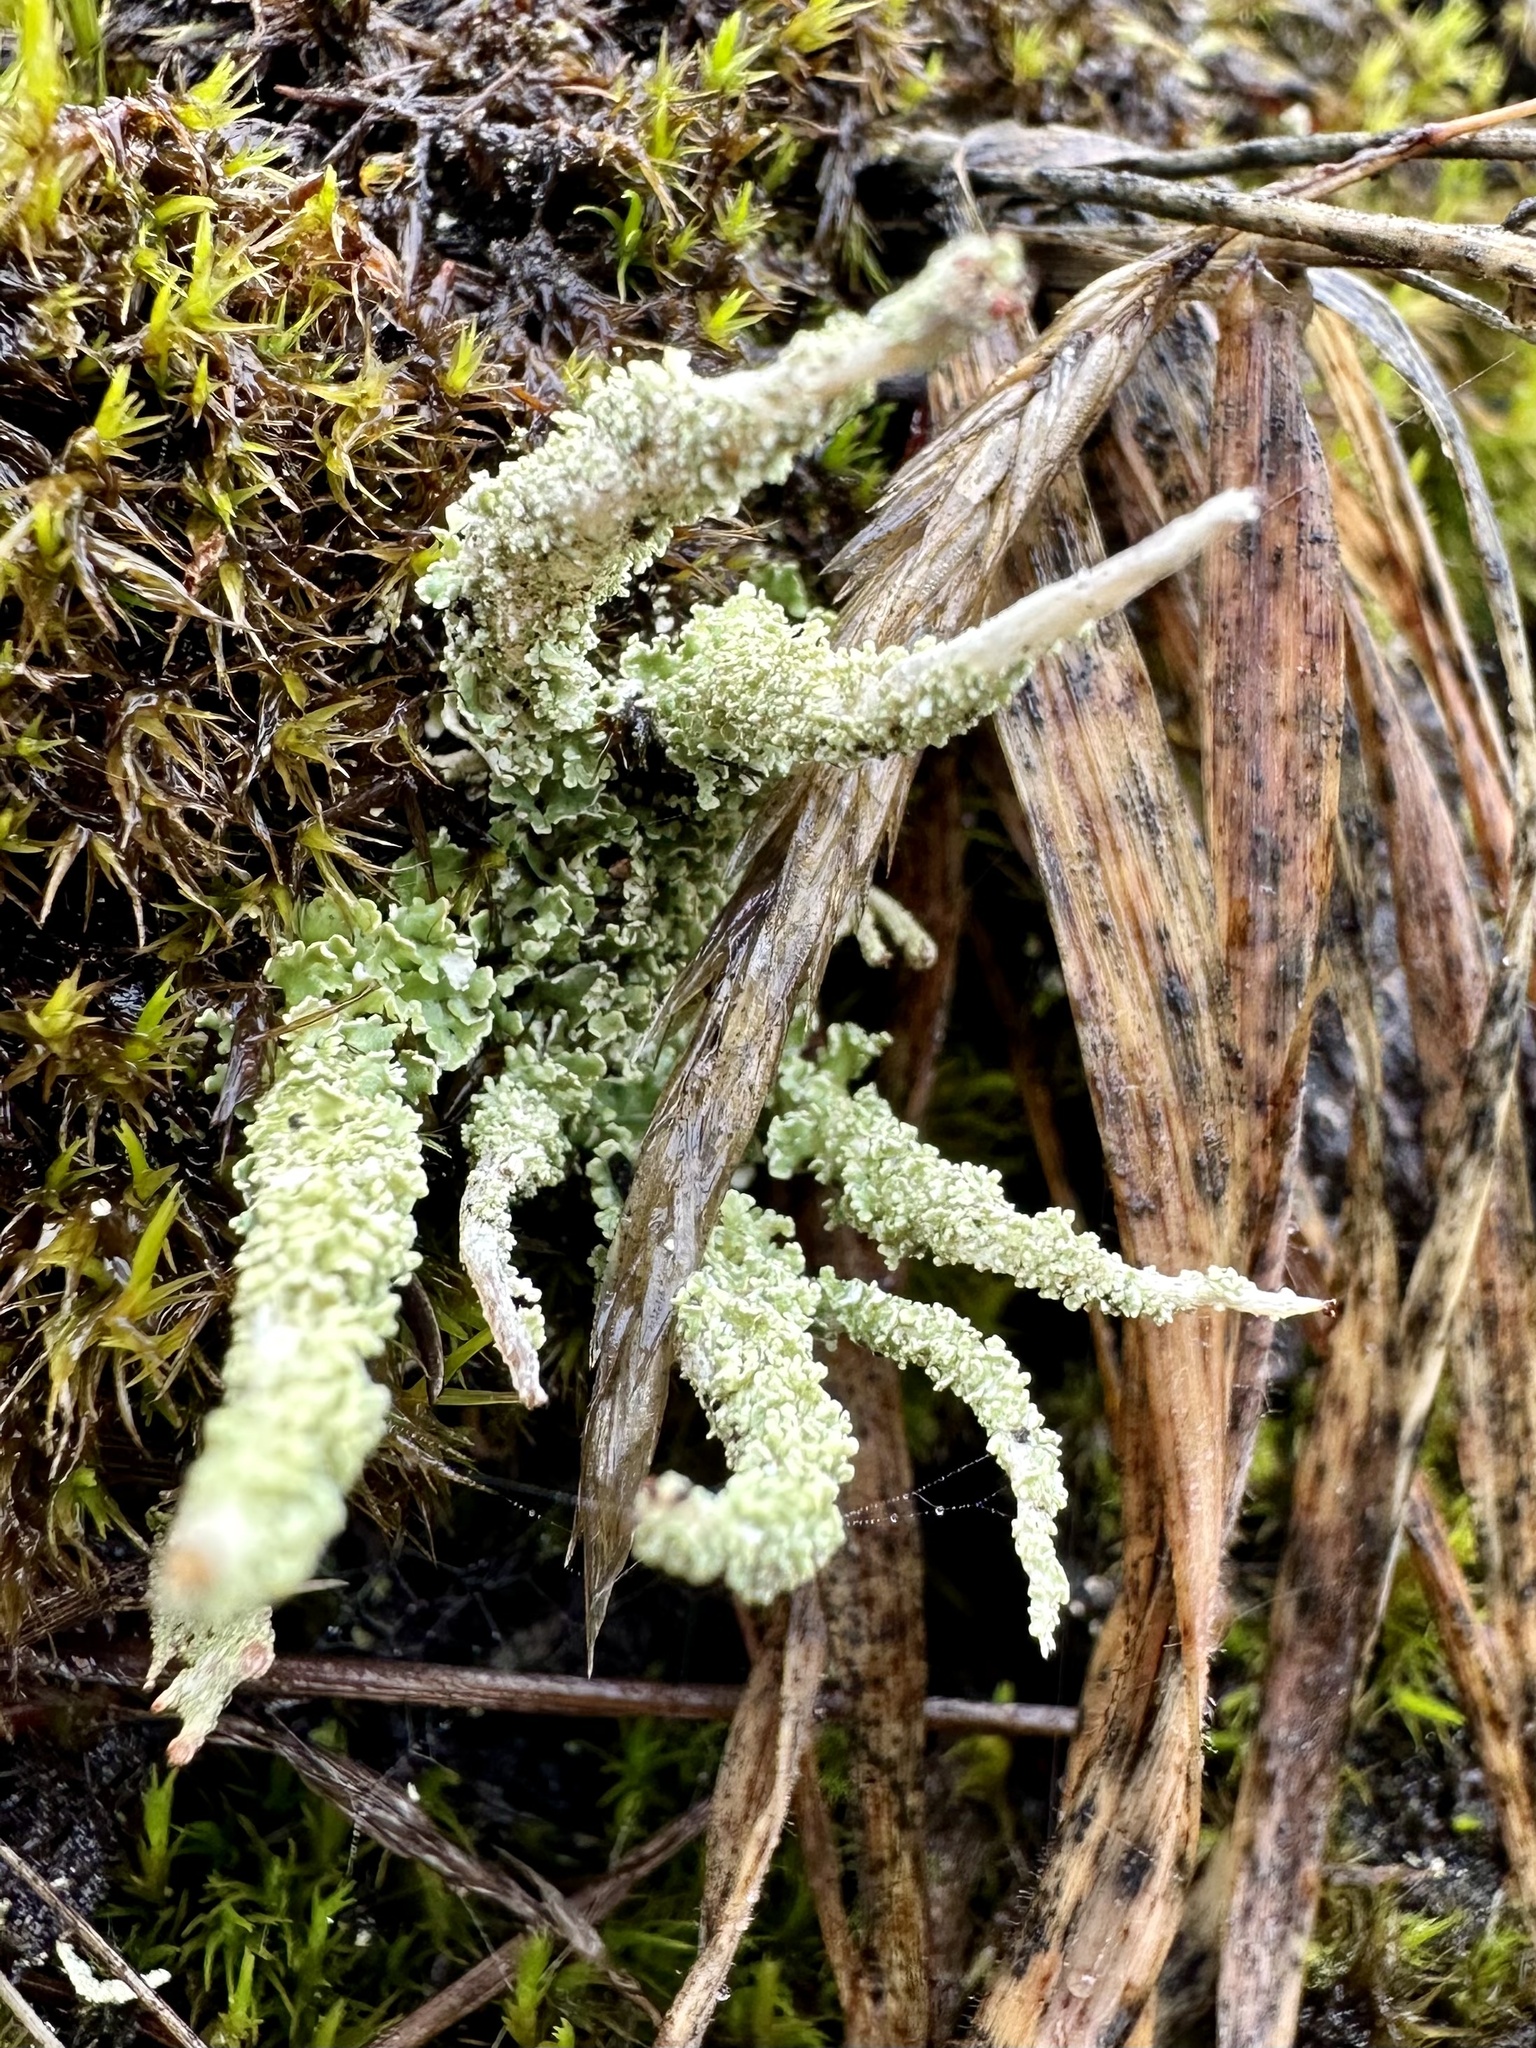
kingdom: Fungi
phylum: Ascomycota
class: Lecanoromycetes
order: Lecanorales
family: Cladoniaceae
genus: Cladonia
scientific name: Cladonia squamosa
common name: Dragon horn
